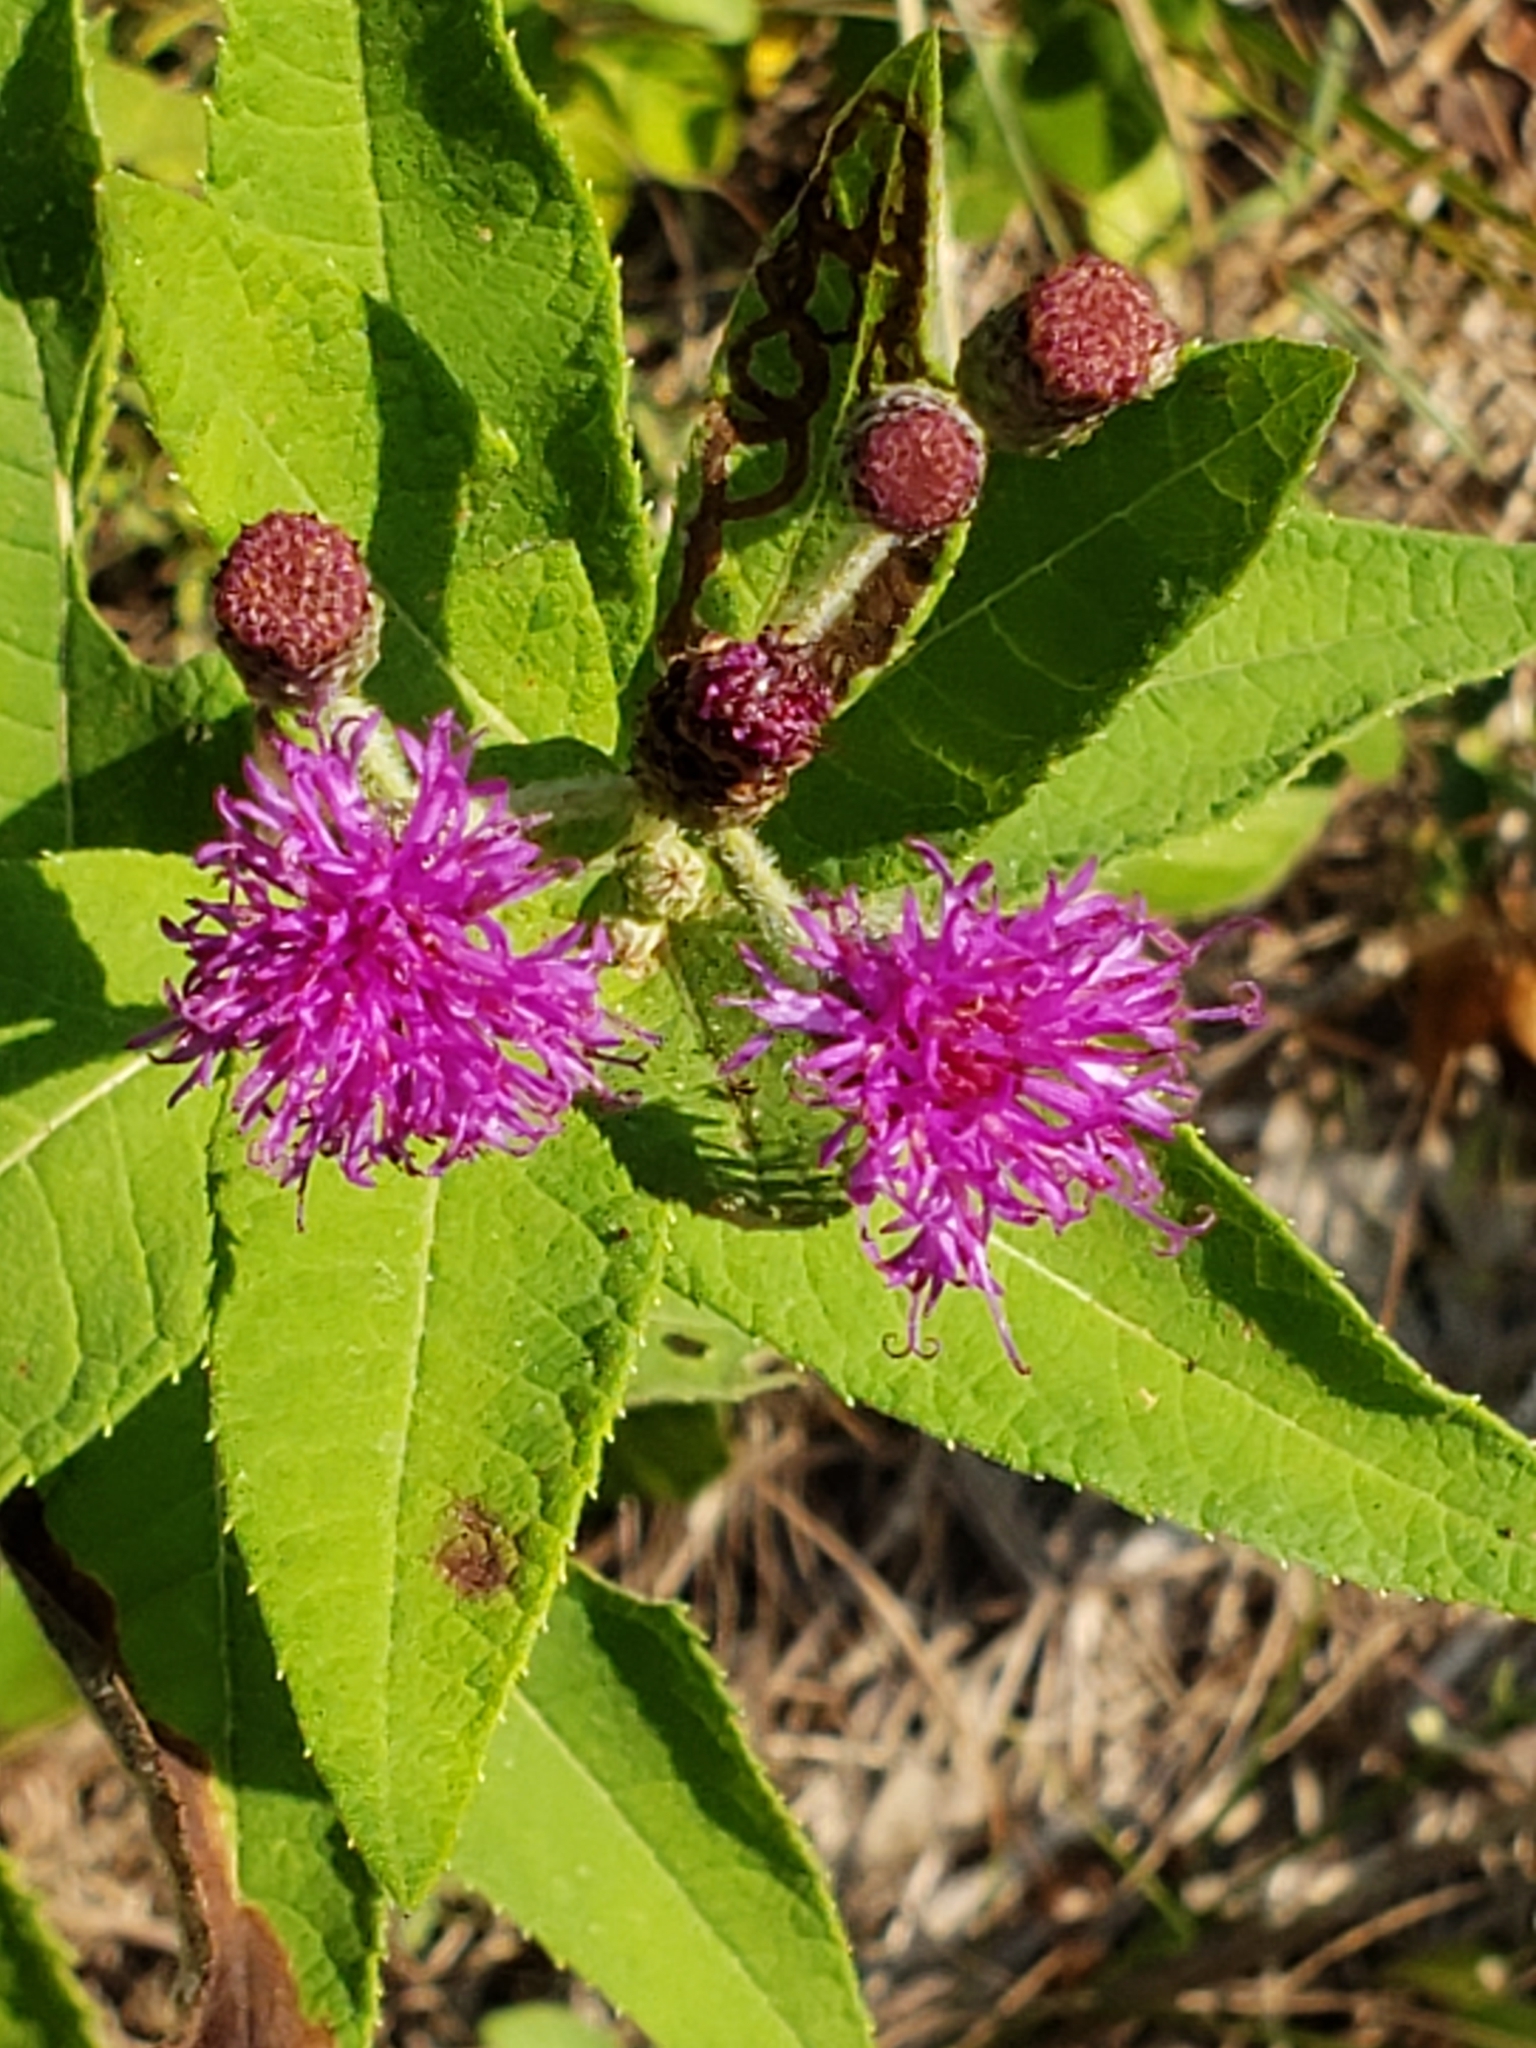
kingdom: Plantae
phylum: Tracheophyta
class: Magnoliopsida
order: Asterales
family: Asteraceae
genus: Vernonia
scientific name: Vernonia missurica
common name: Missouri ironweed
